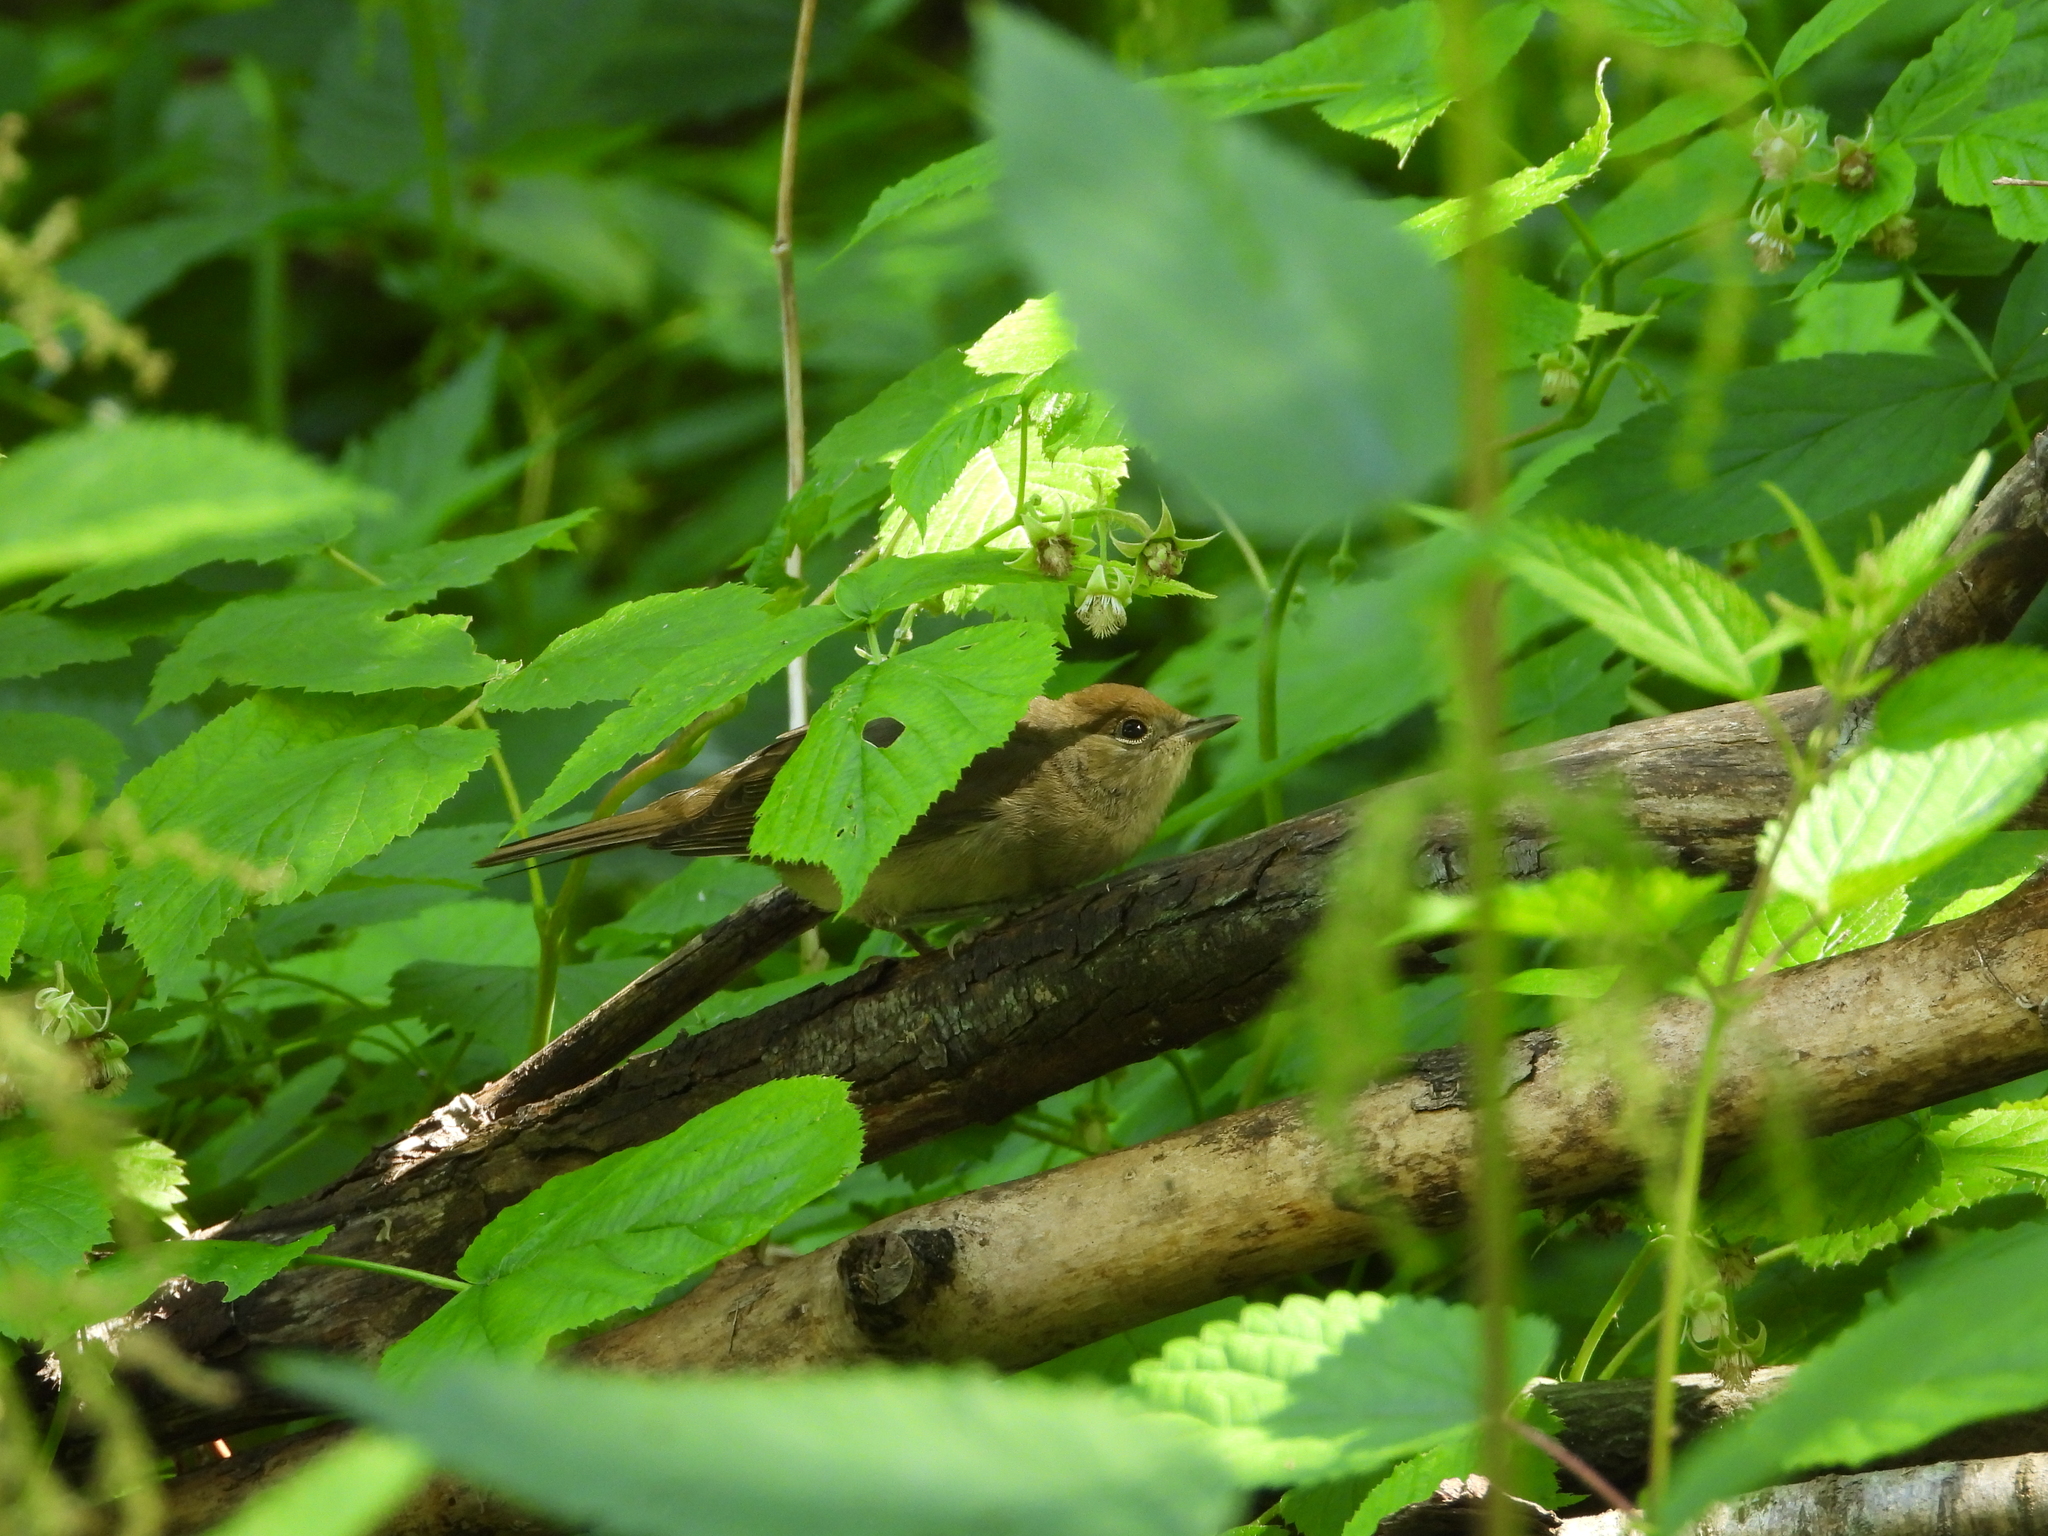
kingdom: Animalia
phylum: Chordata
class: Aves
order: Passeriformes
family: Sylviidae
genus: Sylvia
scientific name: Sylvia atricapilla
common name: Eurasian blackcap
